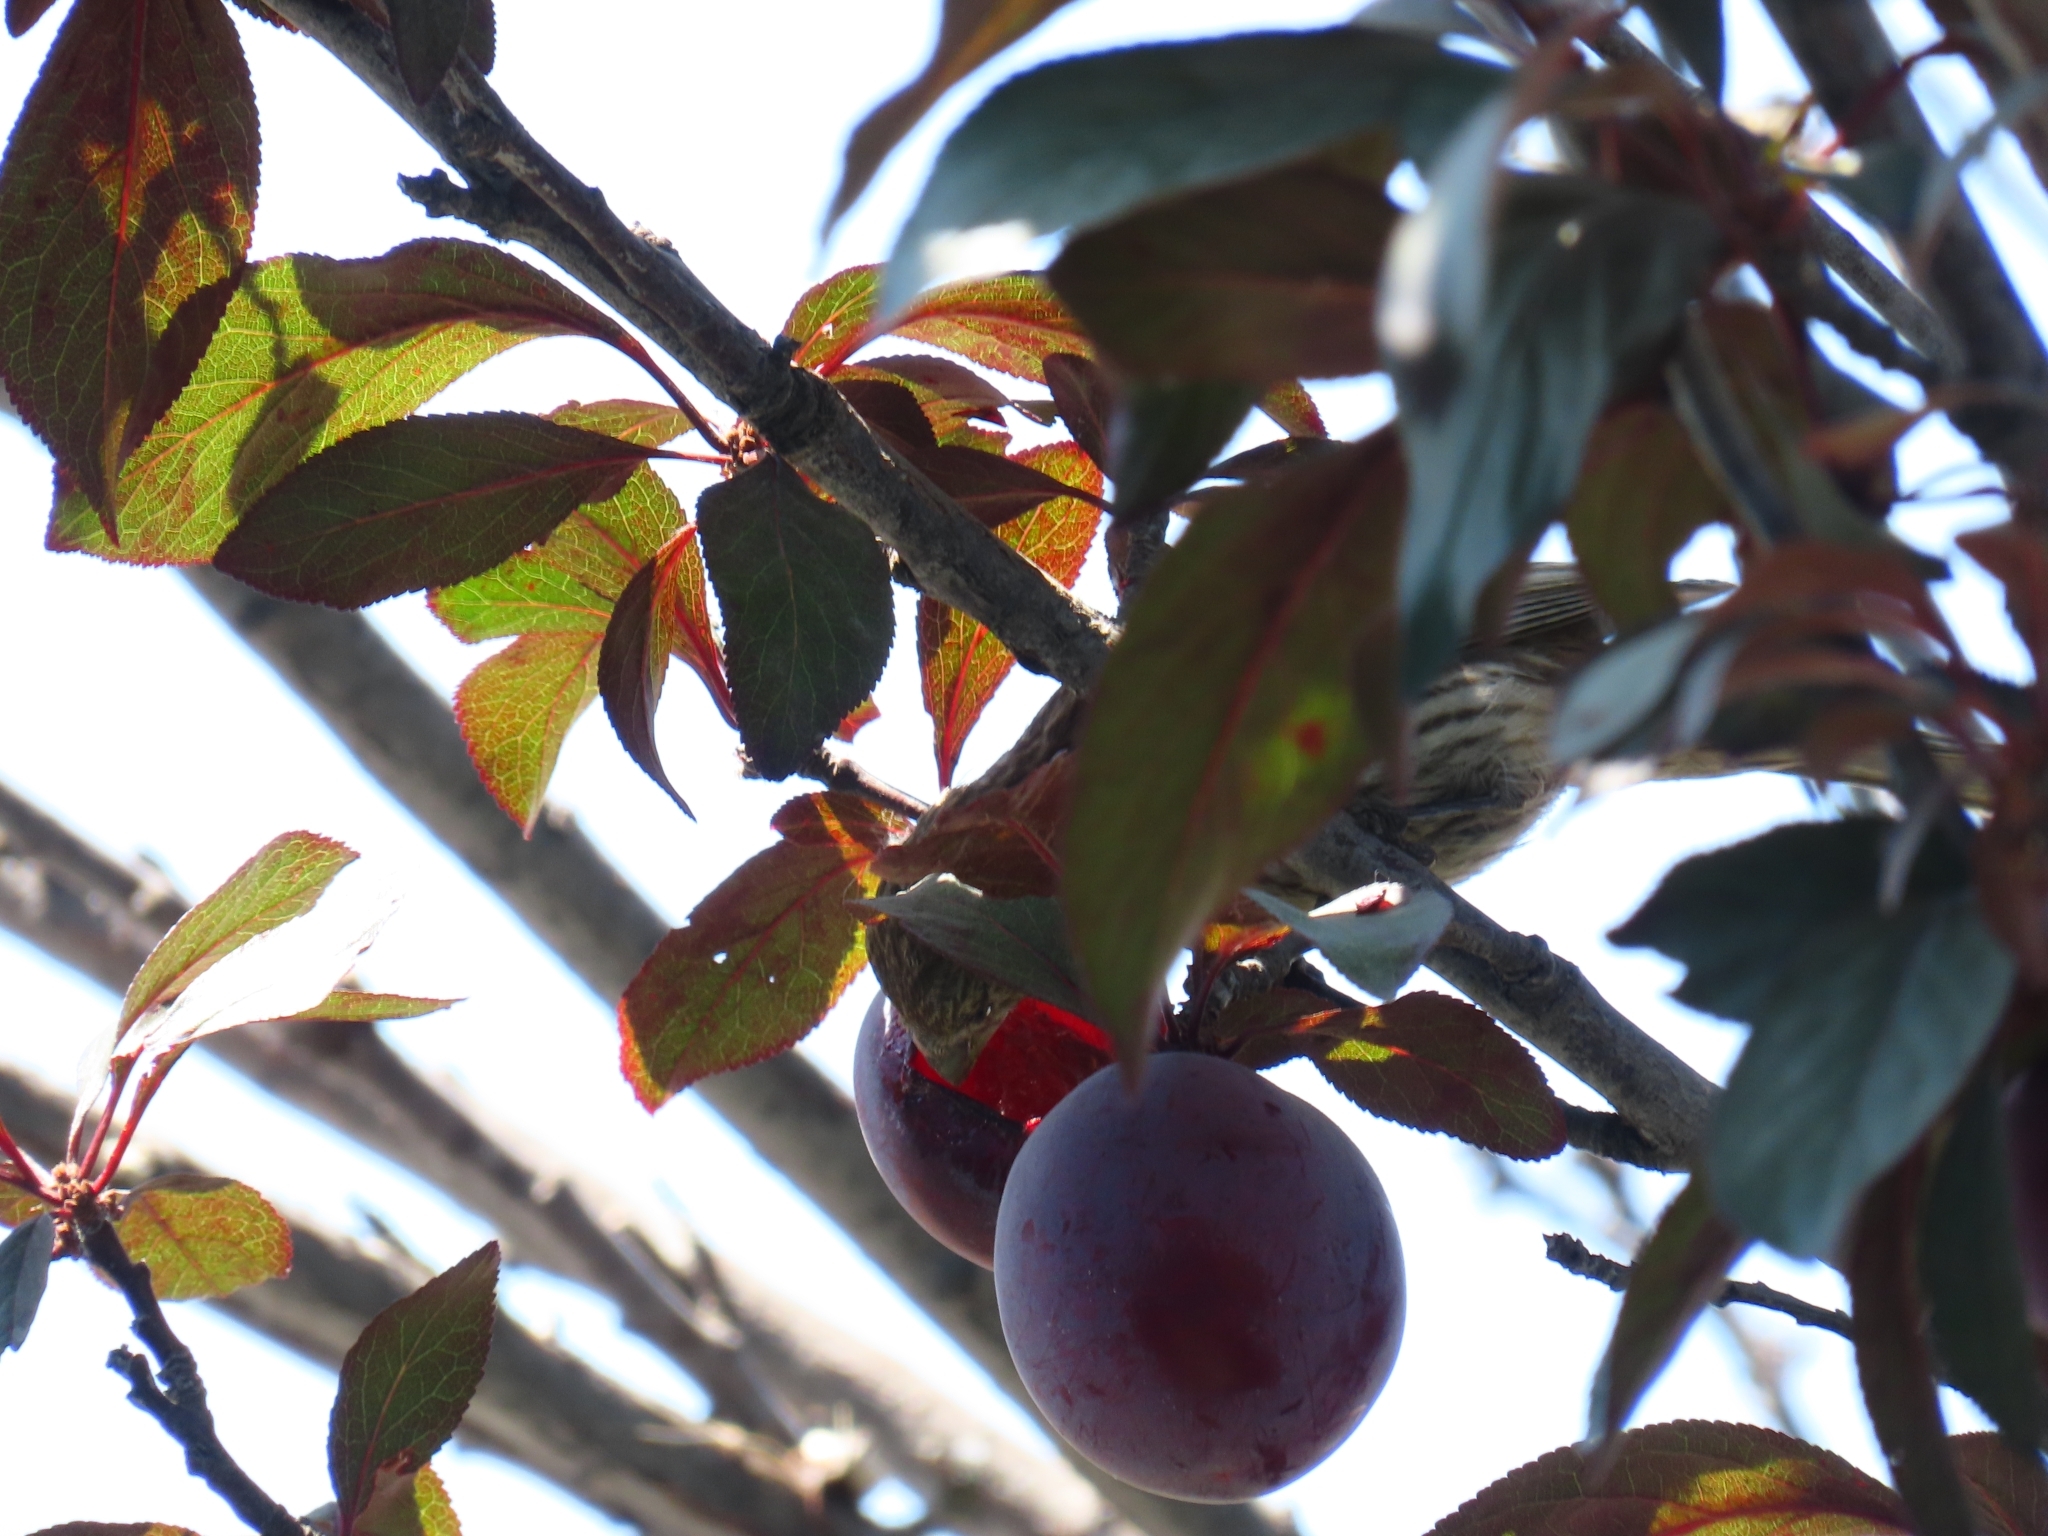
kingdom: Animalia
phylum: Chordata
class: Aves
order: Passeriformes
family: Fringillidae
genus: Haemorhous
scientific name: Haemorhous mexicanus
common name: House finch
